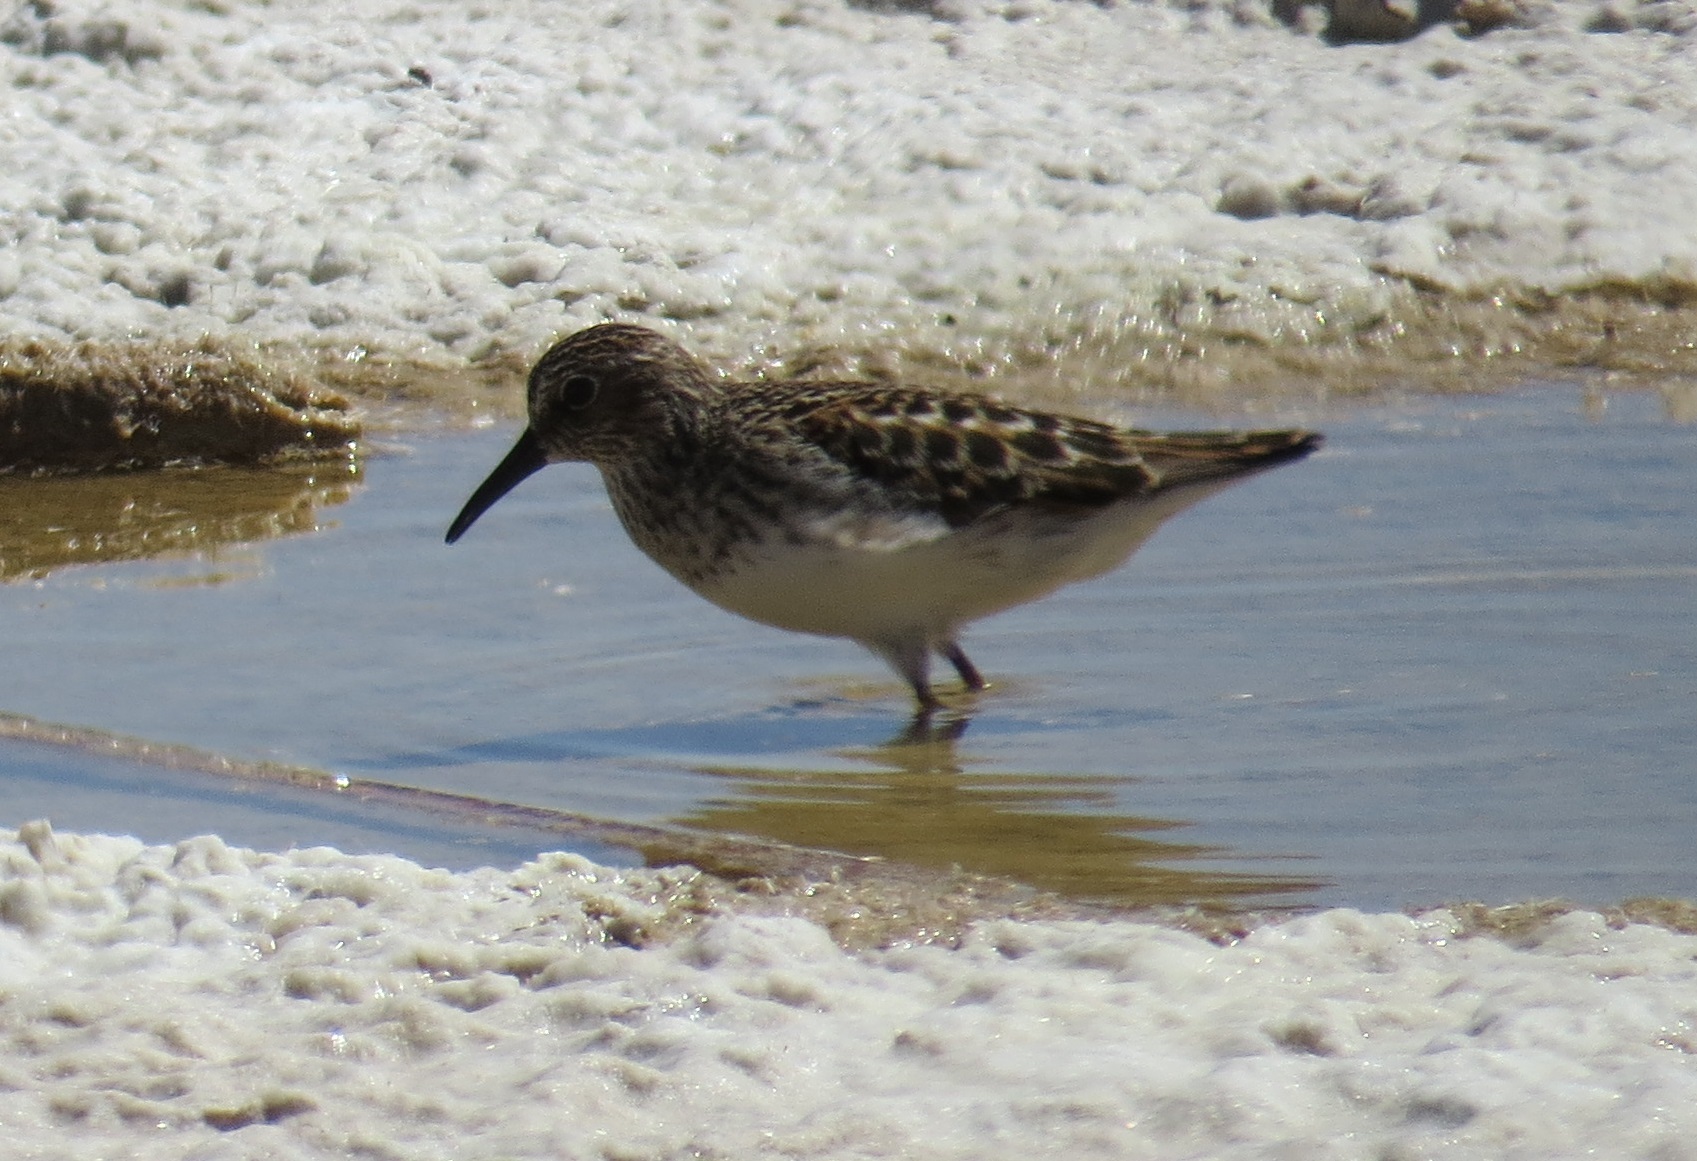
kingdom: Animalia
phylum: Chordata
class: Aves
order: Charadriiformes
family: Scolopacidae
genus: Calidris
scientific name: Calidris minutilla
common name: Least sandpiper
